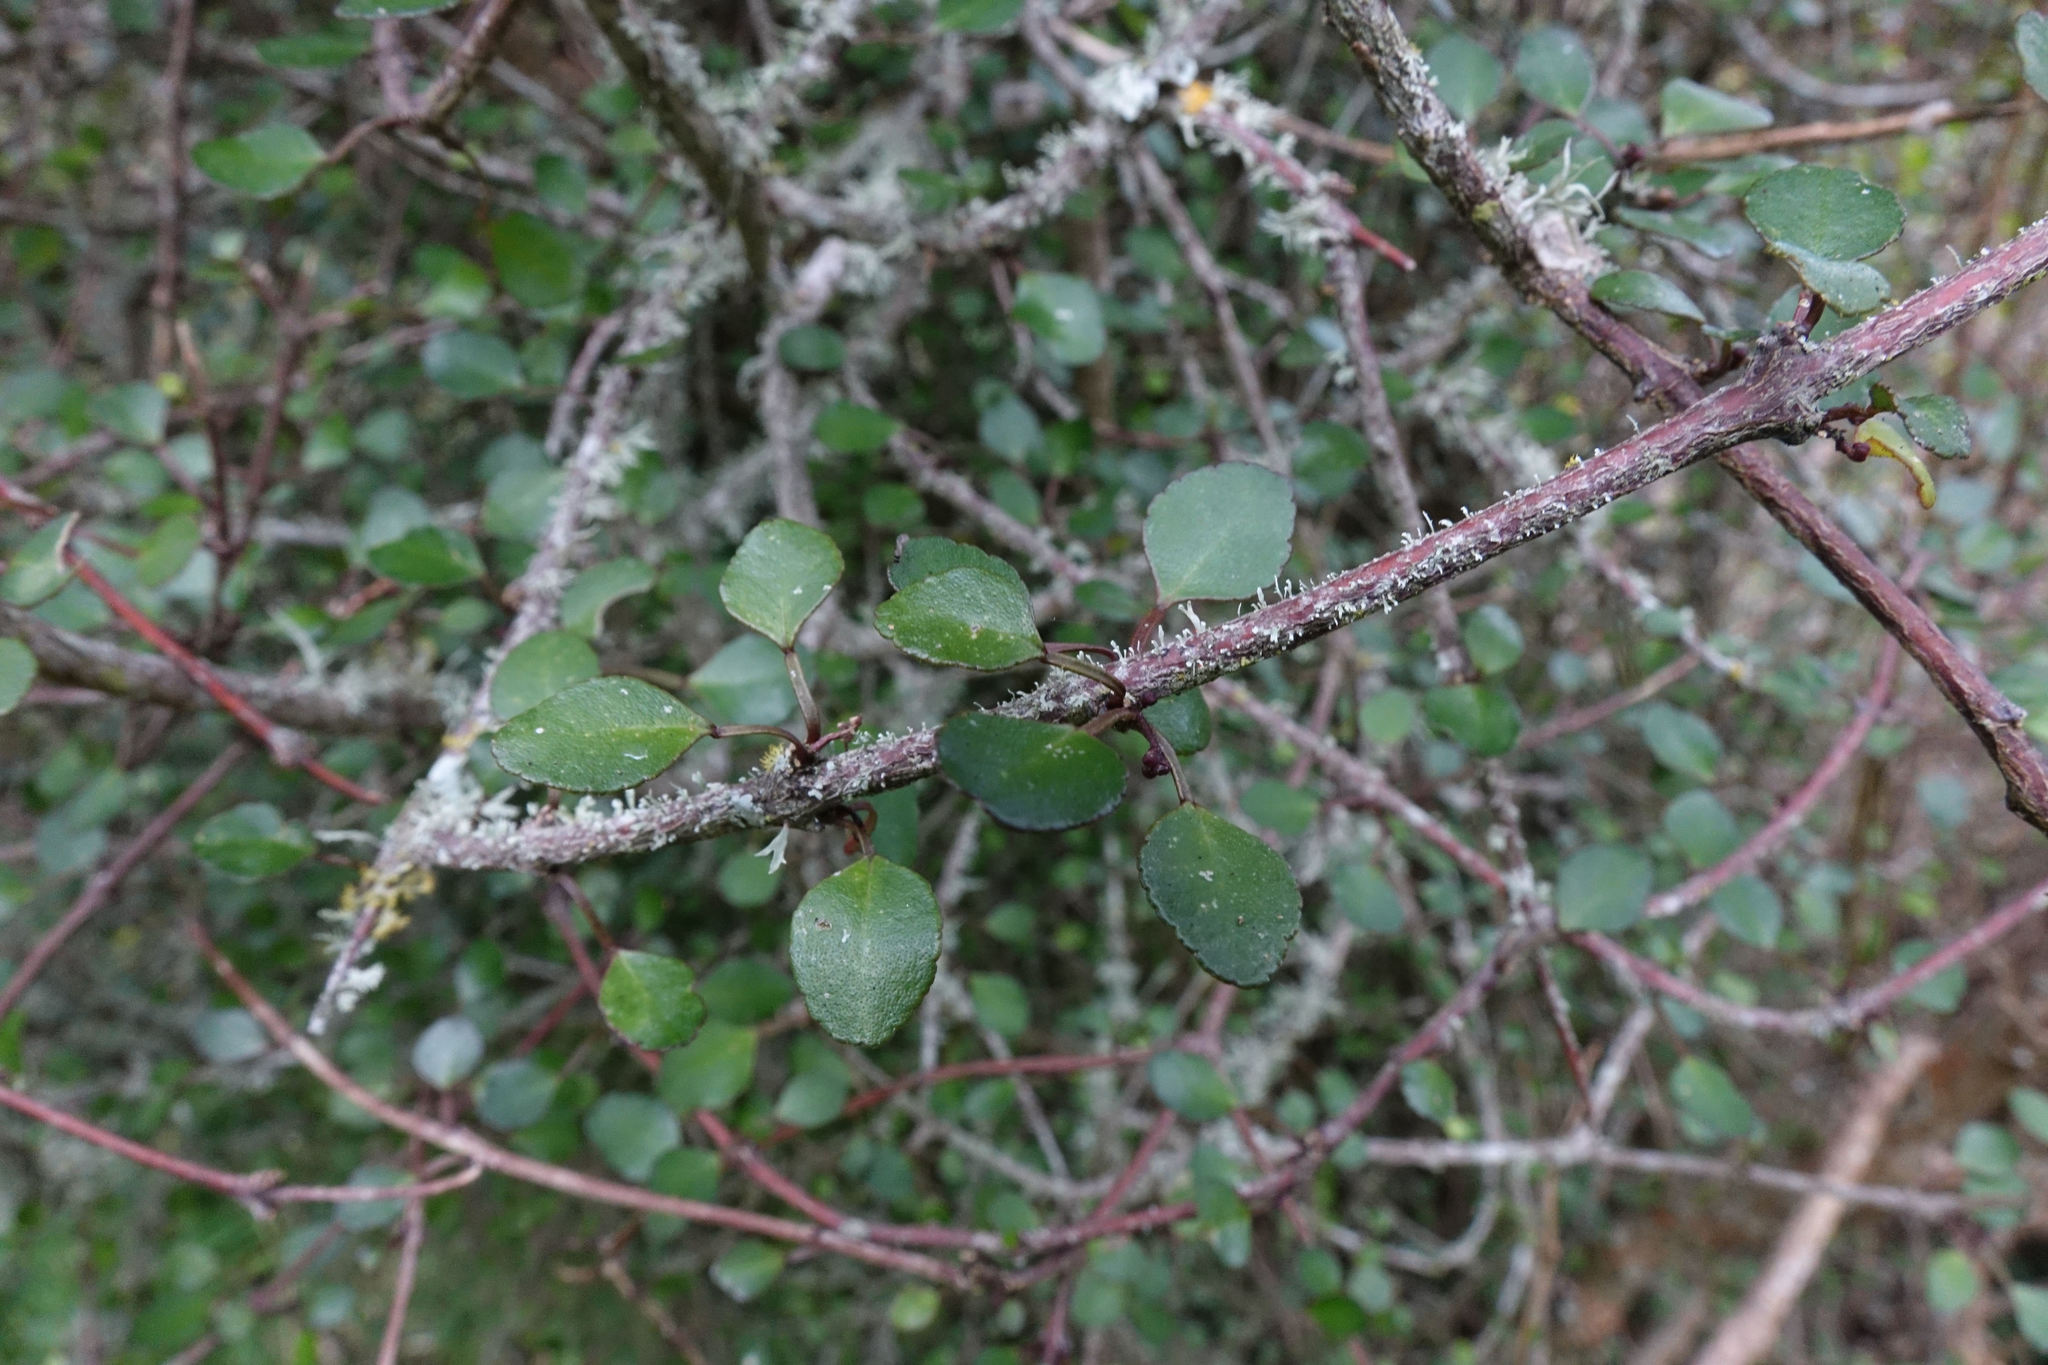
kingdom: Plantae
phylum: Tracheophyta
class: Magnoliopsida
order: Sapindales
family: Rutaceae
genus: Melicope
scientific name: Melicope simplex
